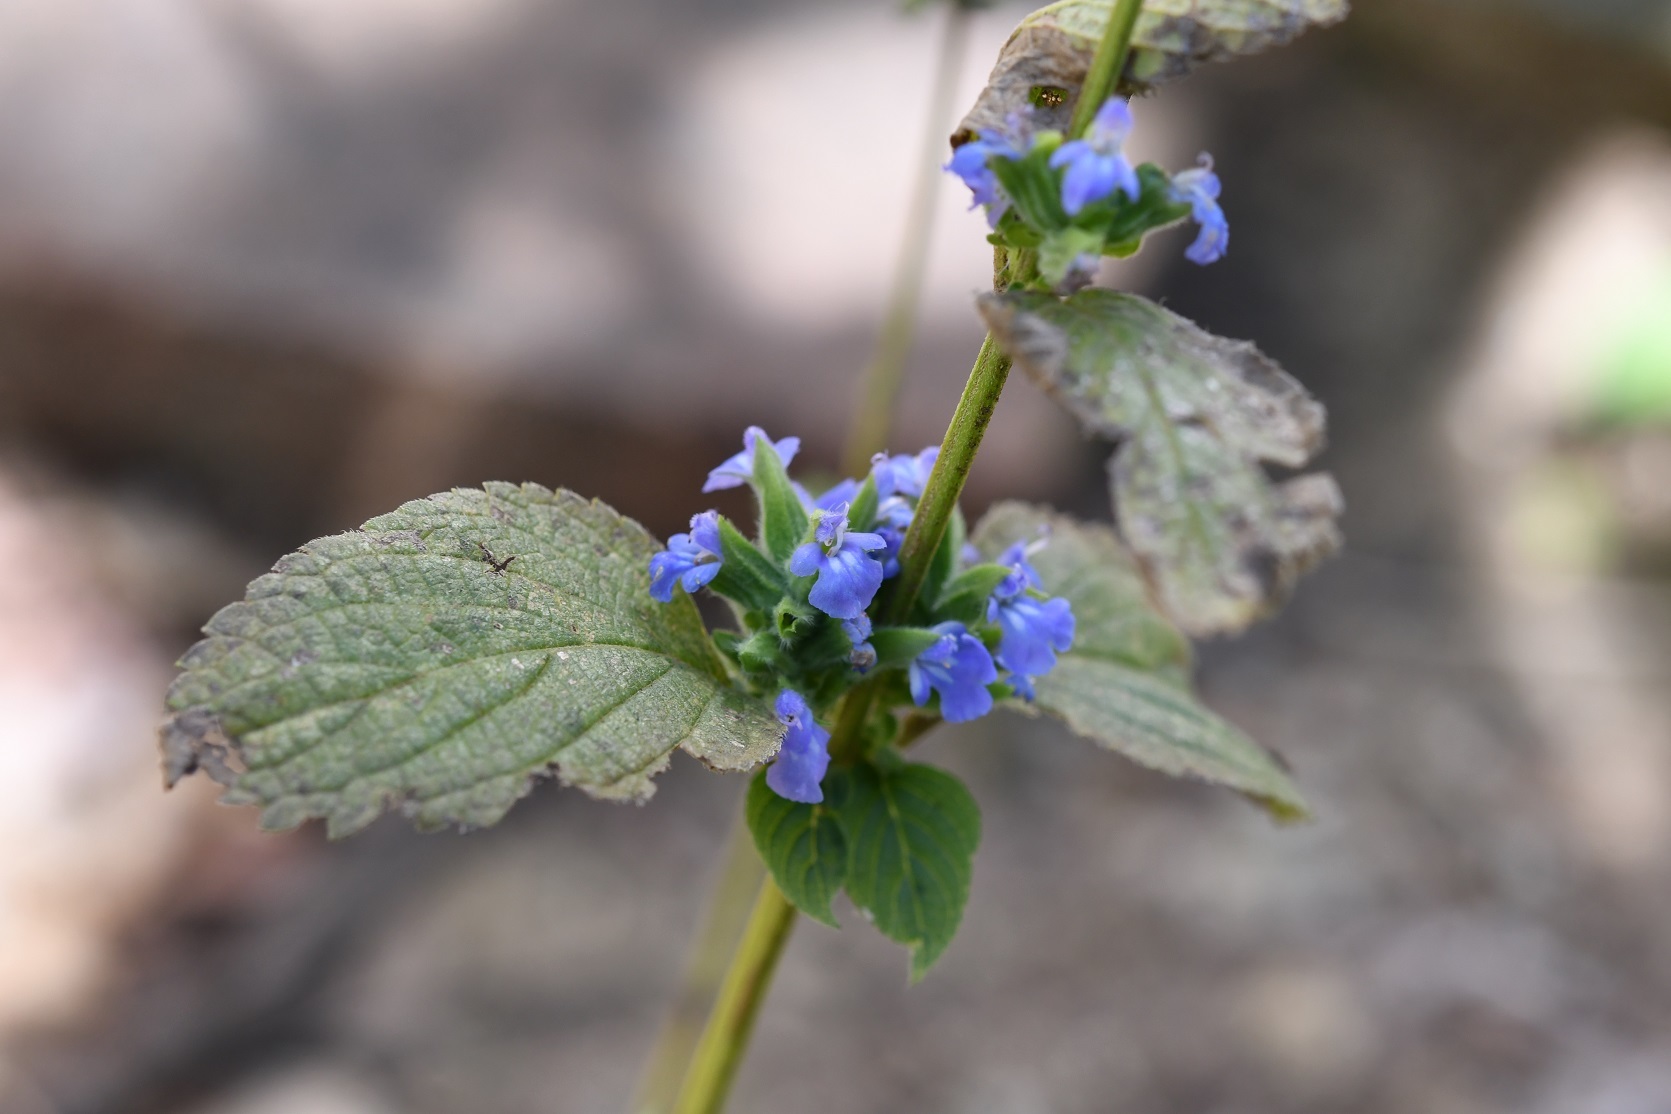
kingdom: Plantae
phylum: Tracheophyta
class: Magnoliopsida
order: Lamiales
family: Lamiaceae
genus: Salvia
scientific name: Salvia hispanica
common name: Chia
